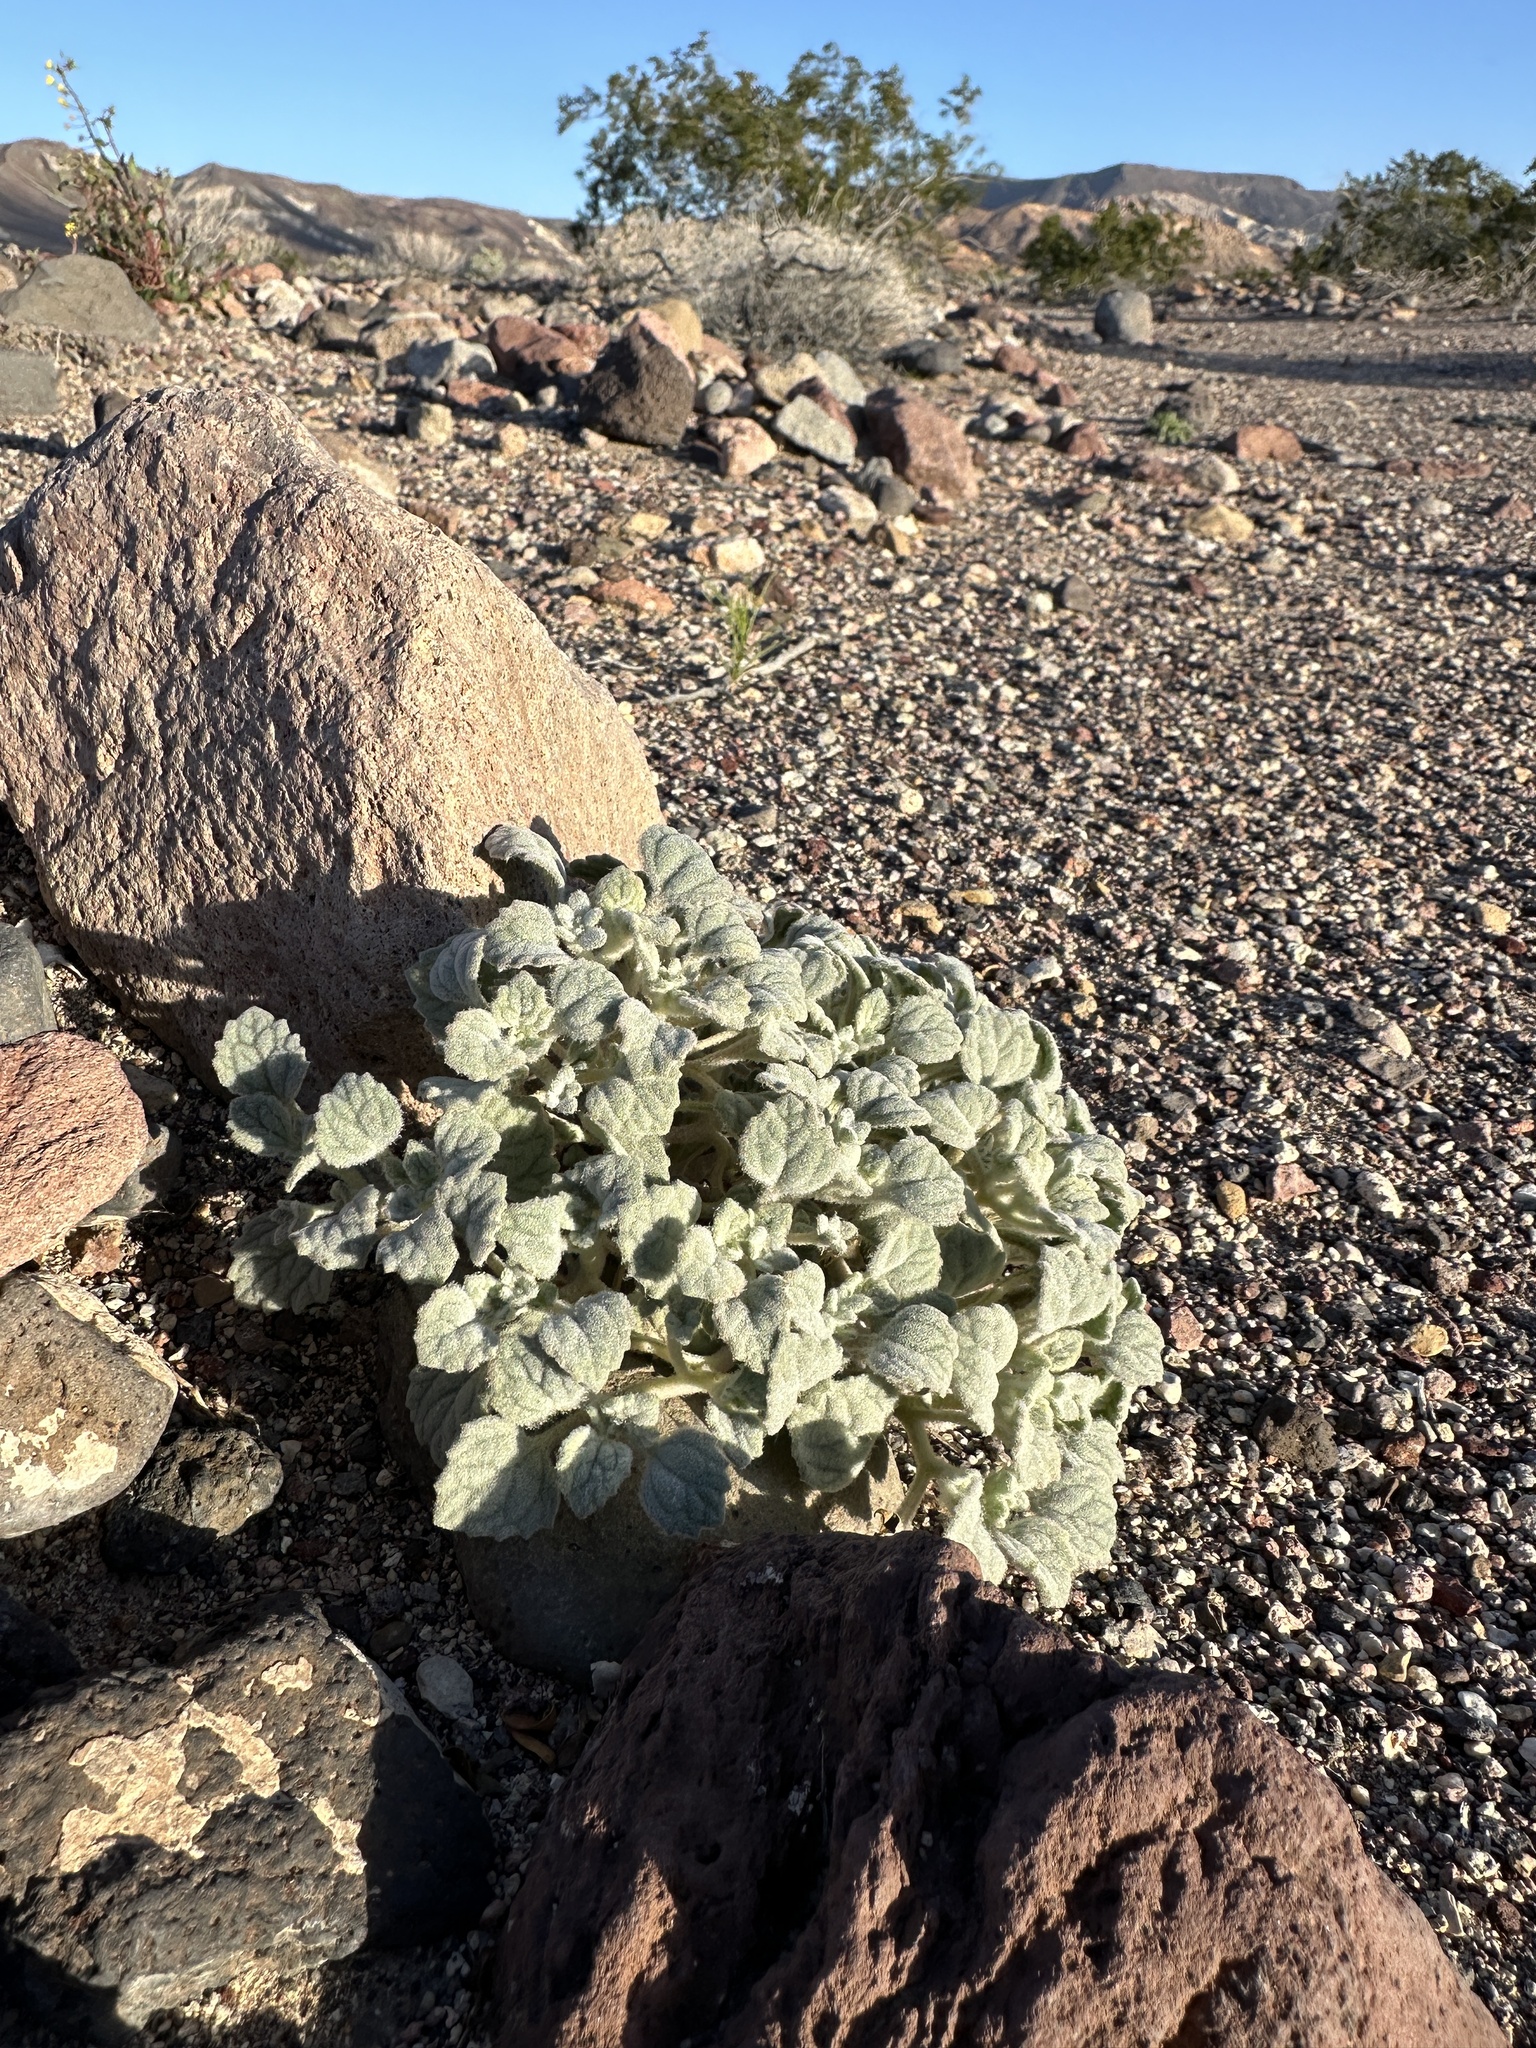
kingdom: Plantae
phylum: Tracheophyta
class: Magnoliopsida
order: Asterales
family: Asteraceae
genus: Psathyrotes
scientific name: Psathyrotes ramosissima
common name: Turtleback
